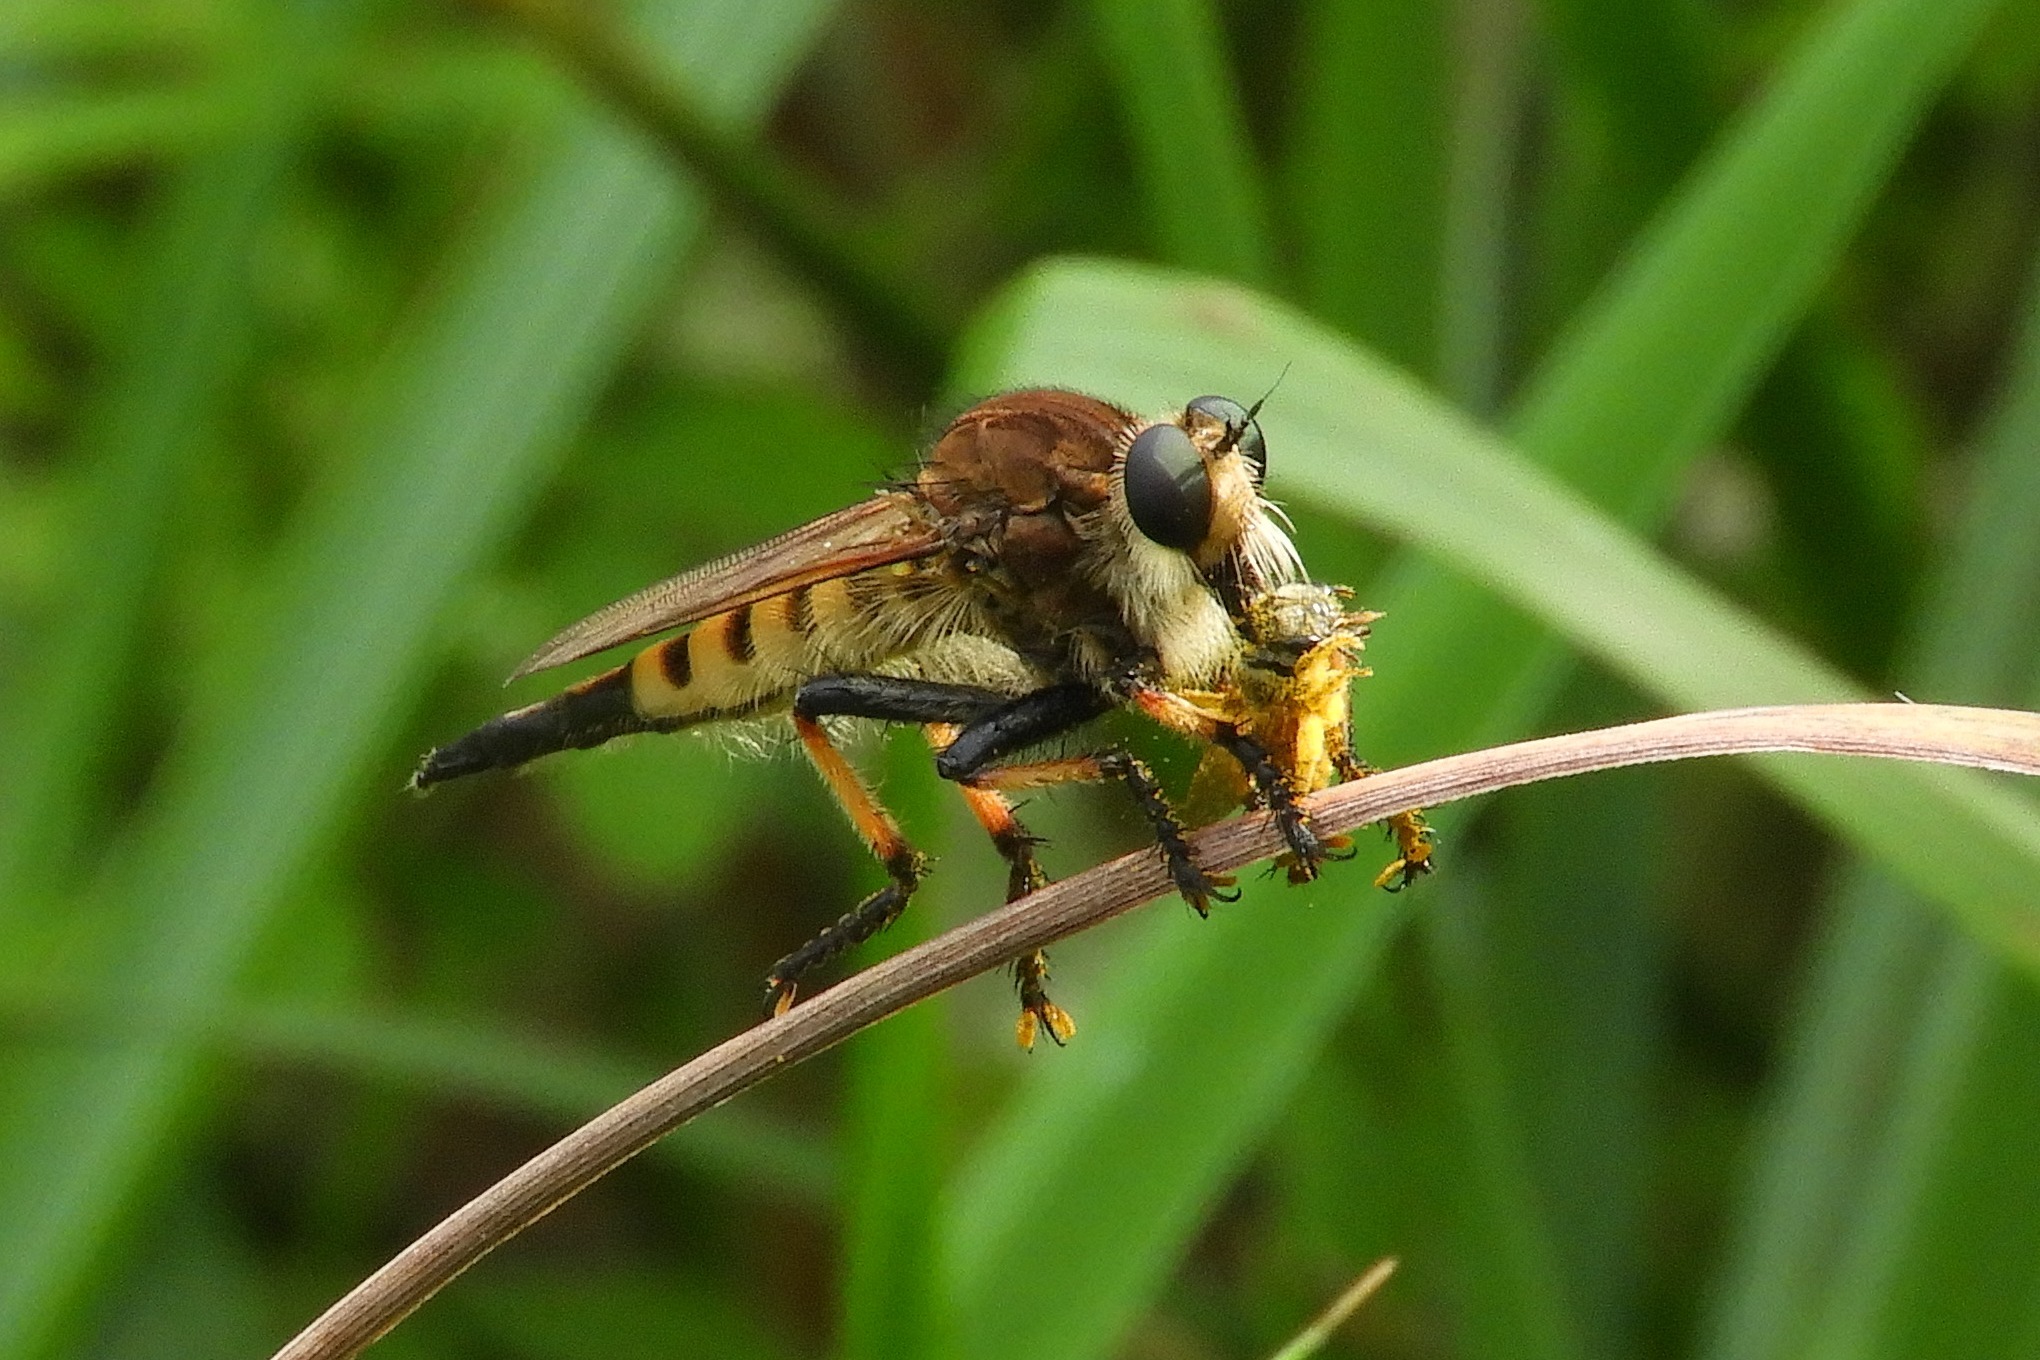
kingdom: Animalia
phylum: Arthropoda
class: Insecta
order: Diptera
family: Asilidae
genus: Promachus
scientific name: Promachus rufipes
